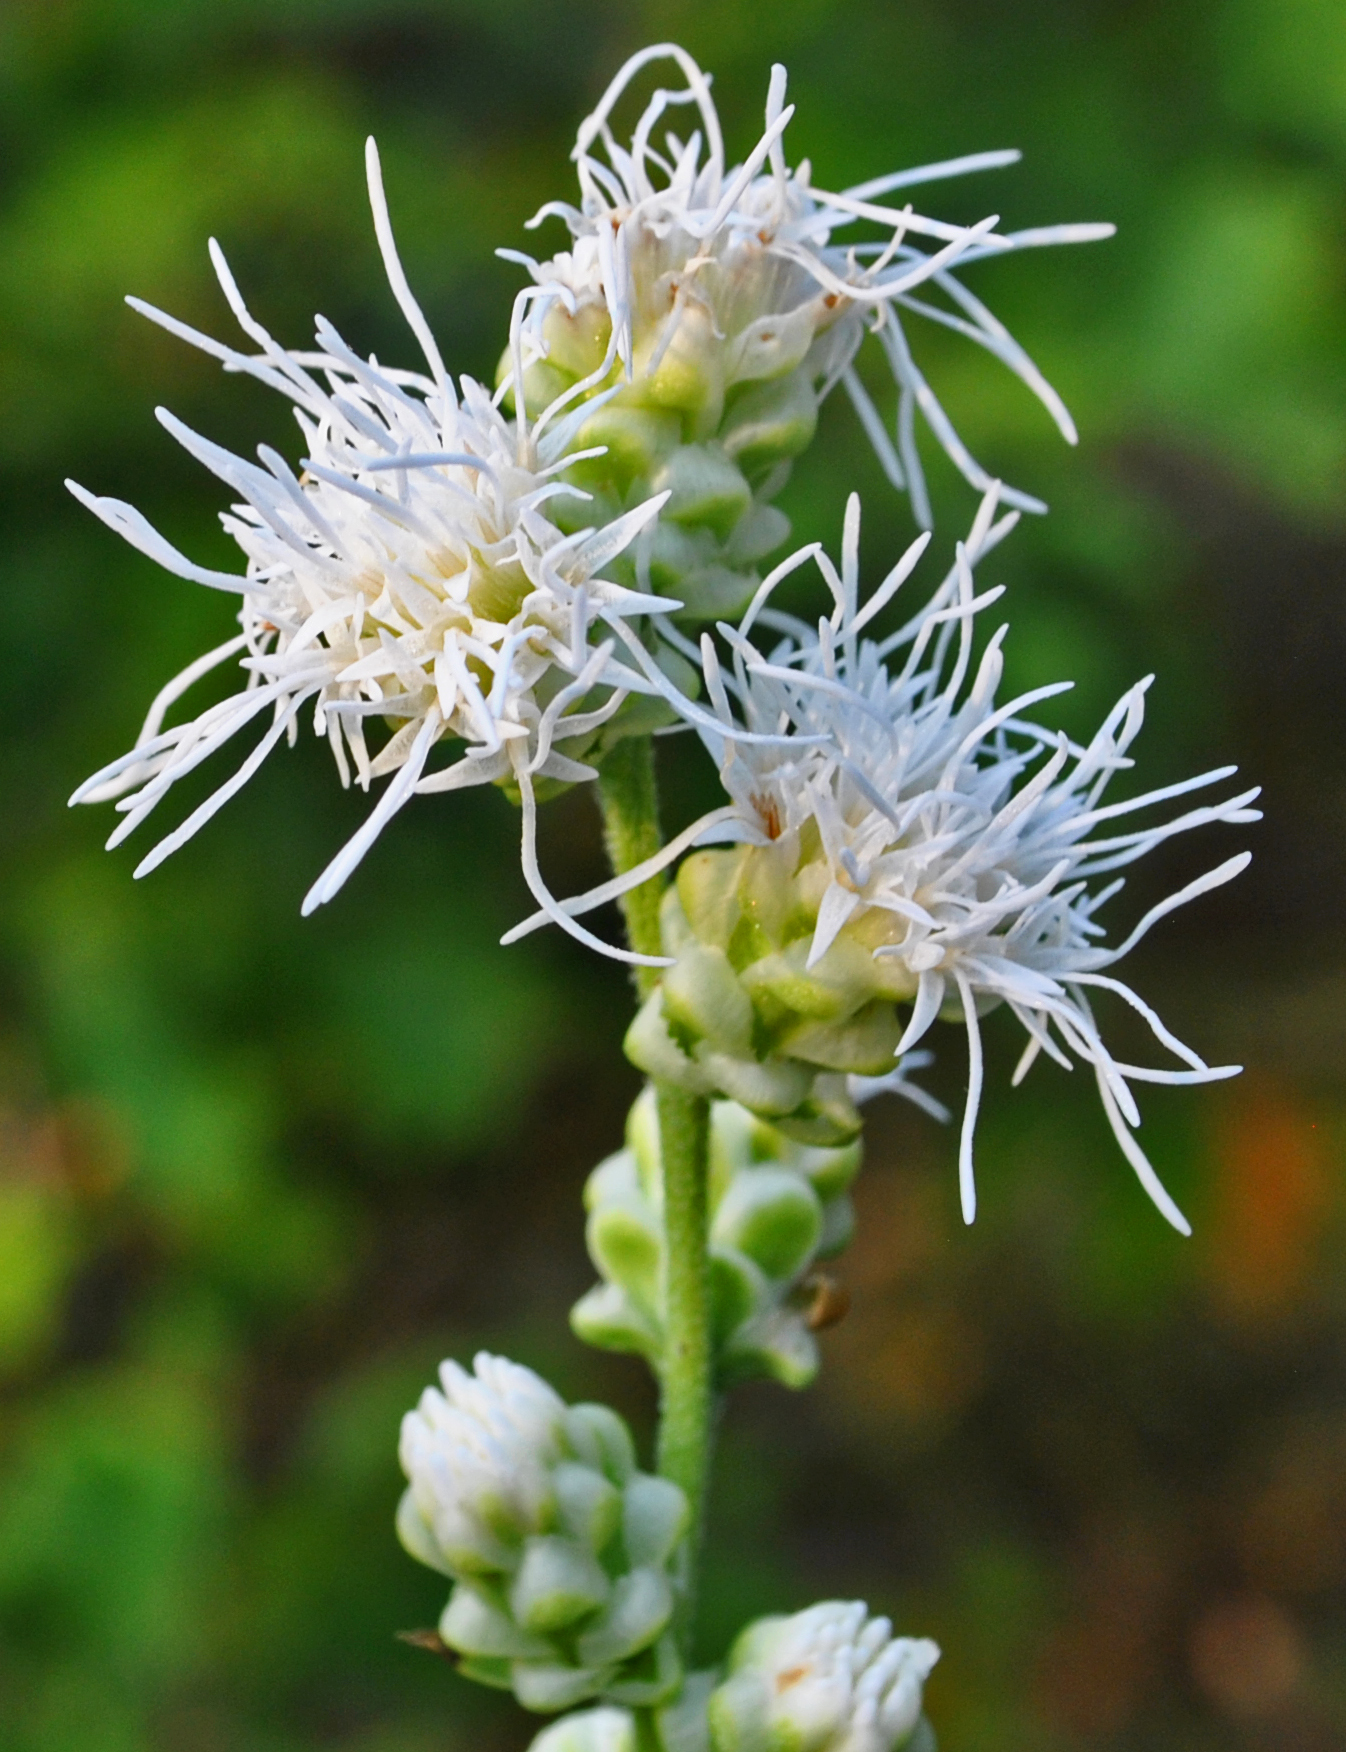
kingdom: Plantae
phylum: Tracheophyta
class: Magnoliopsida
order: Asterales
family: Asteraceae
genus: Liatris
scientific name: Liatris aspera
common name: Lacerate blazing-star
